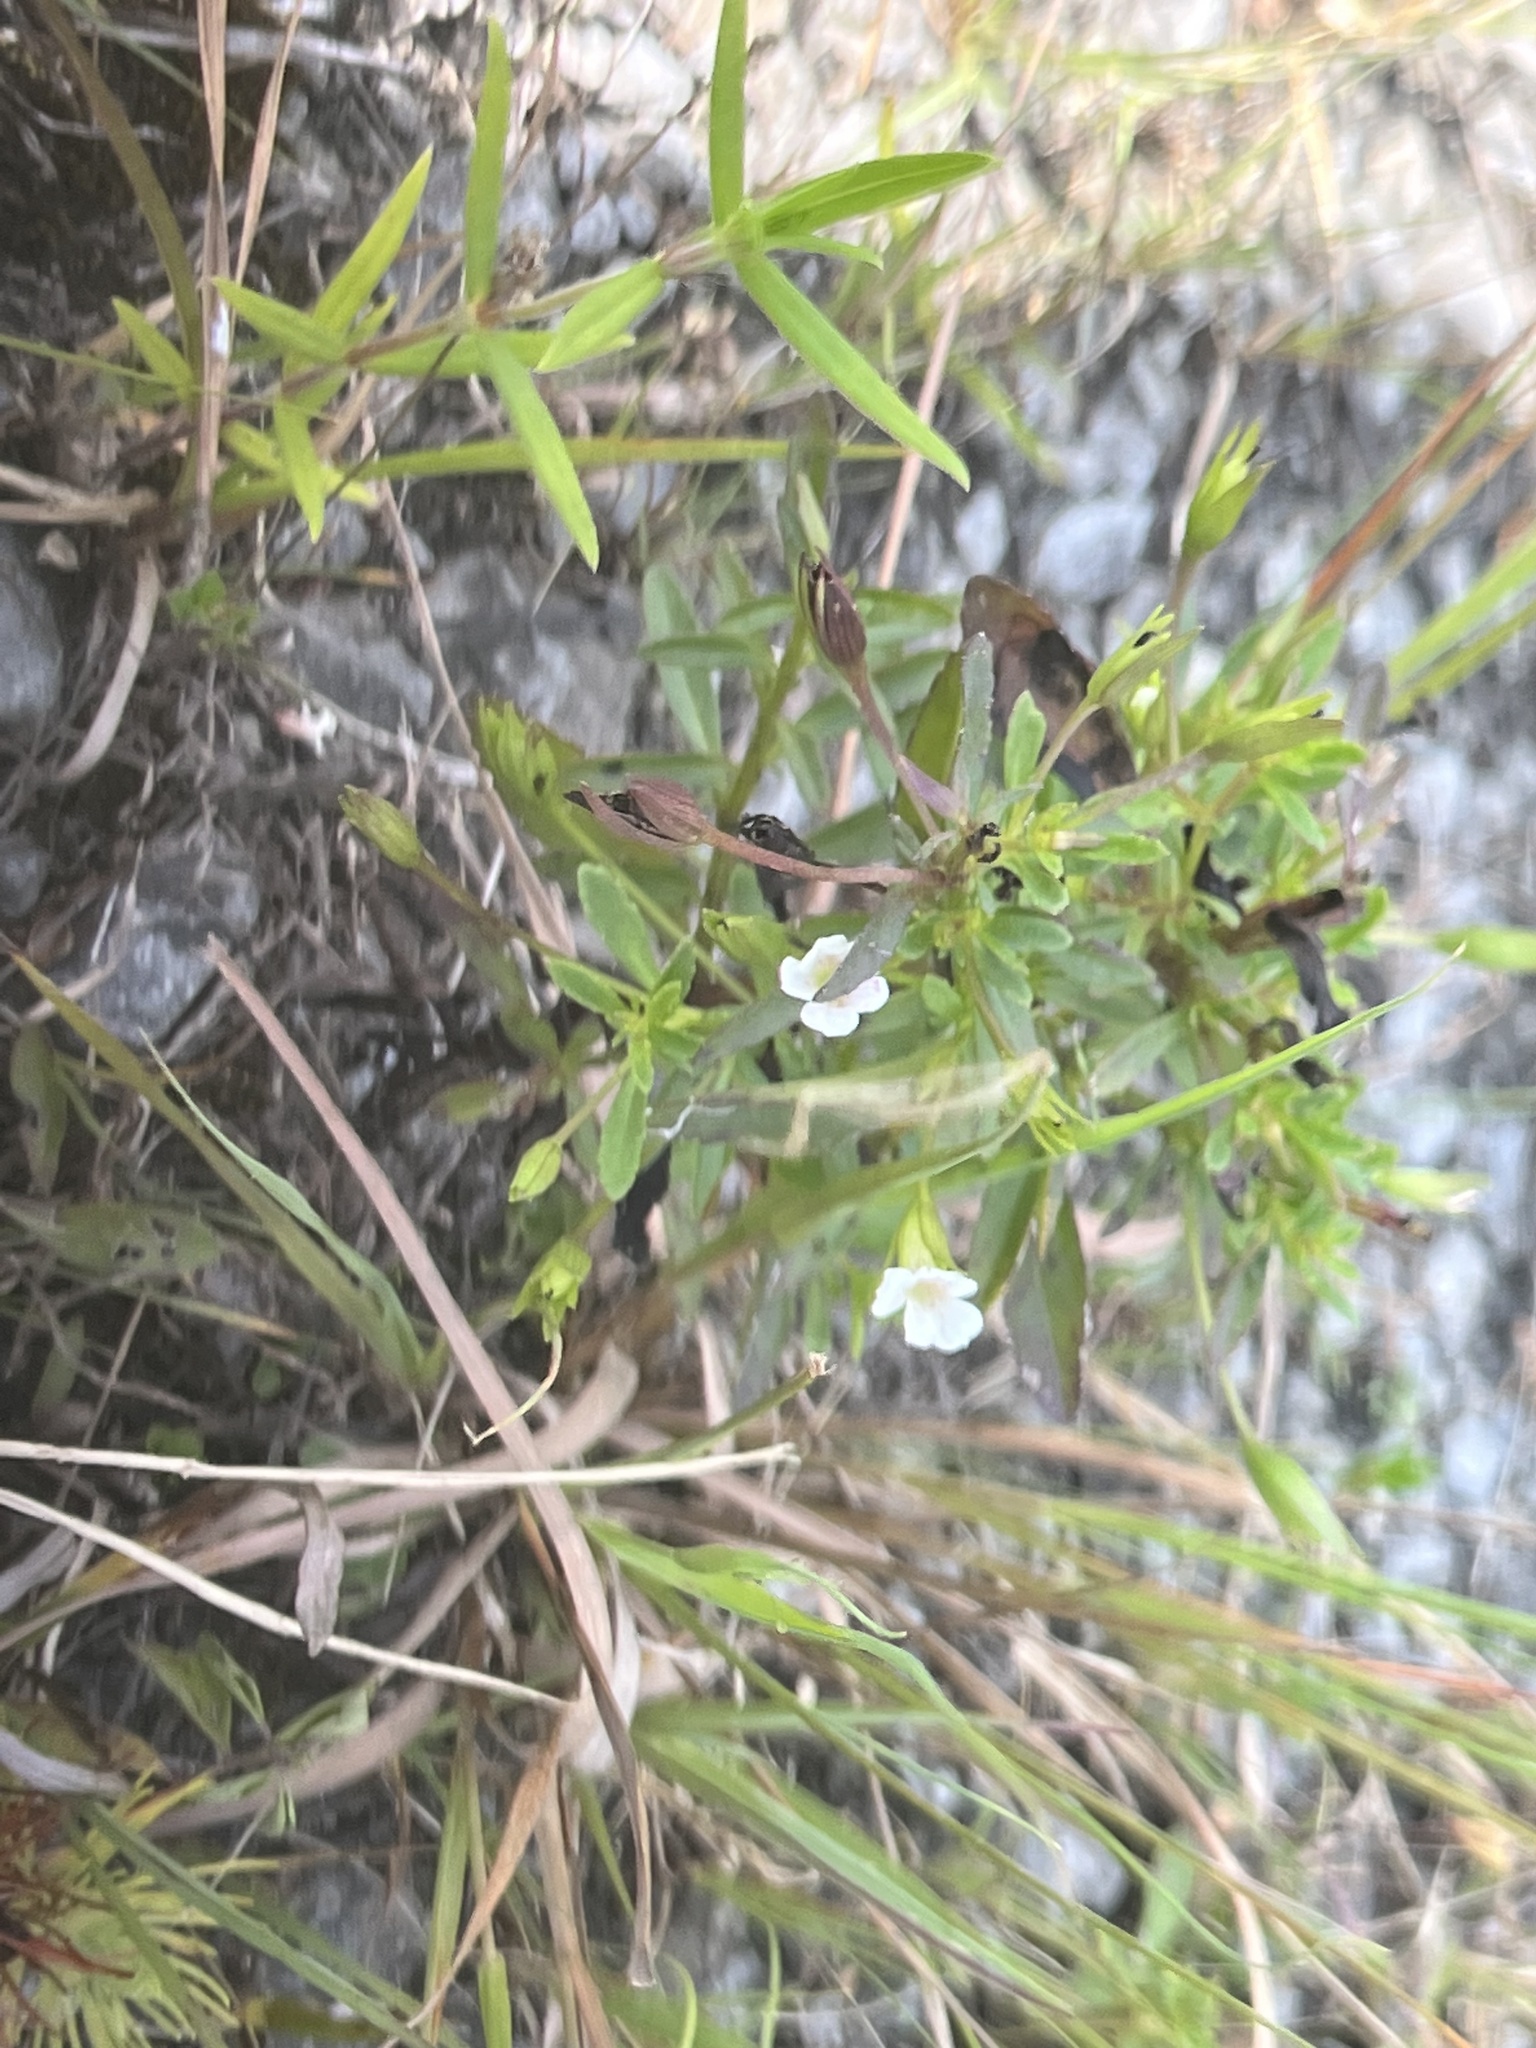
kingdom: Plantae
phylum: Tracheophyta
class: Magnoliopsida
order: Lamiales
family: Plantaginaceae
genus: Mecardonia
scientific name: Mecardonia acuminata
